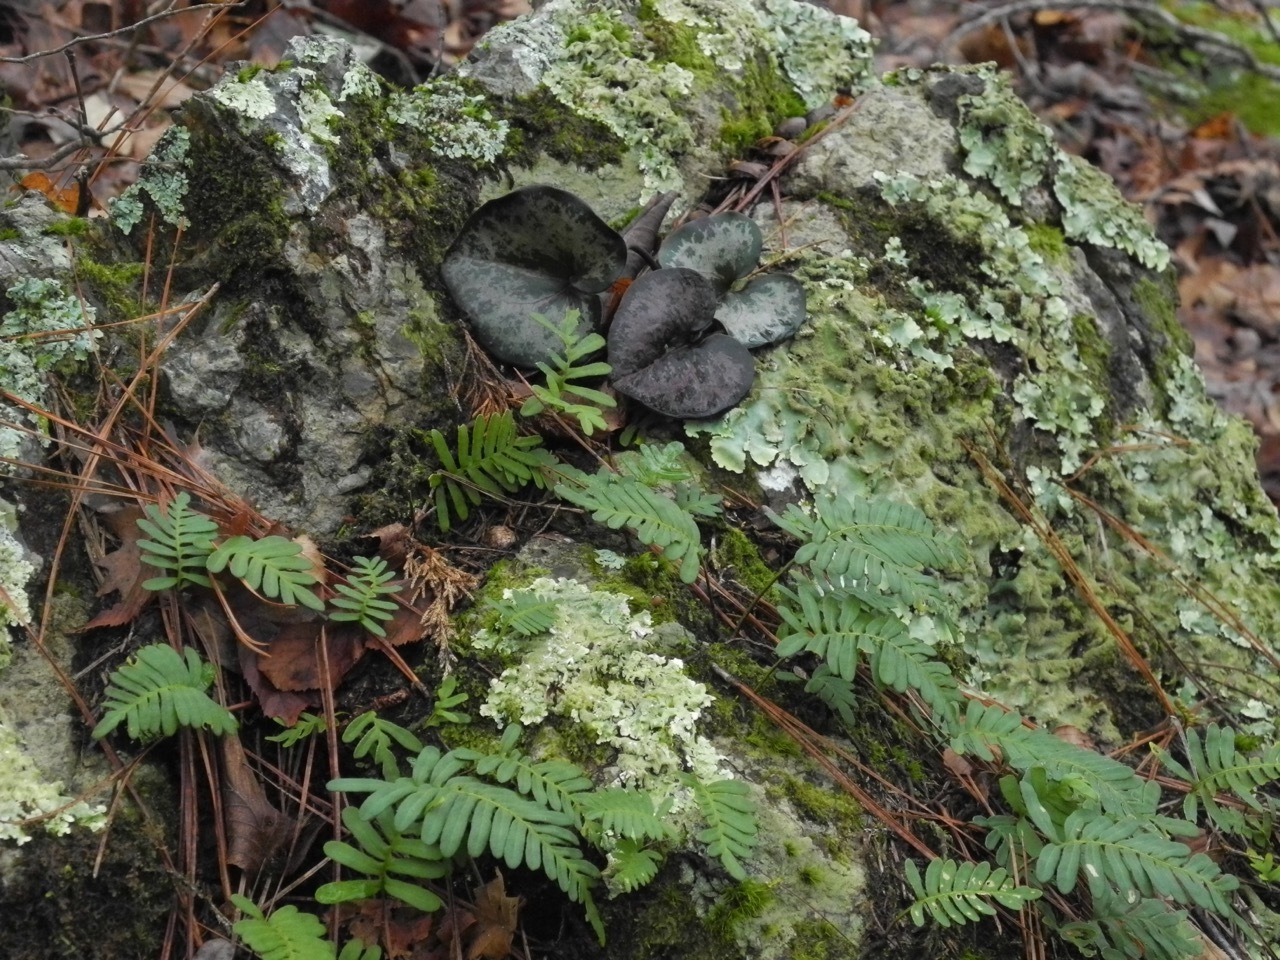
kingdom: Plantae
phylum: Tracheophyta
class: Magnoliopsida
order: Piperales
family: Aristolochiaceae
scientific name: Aristolochiaceae
